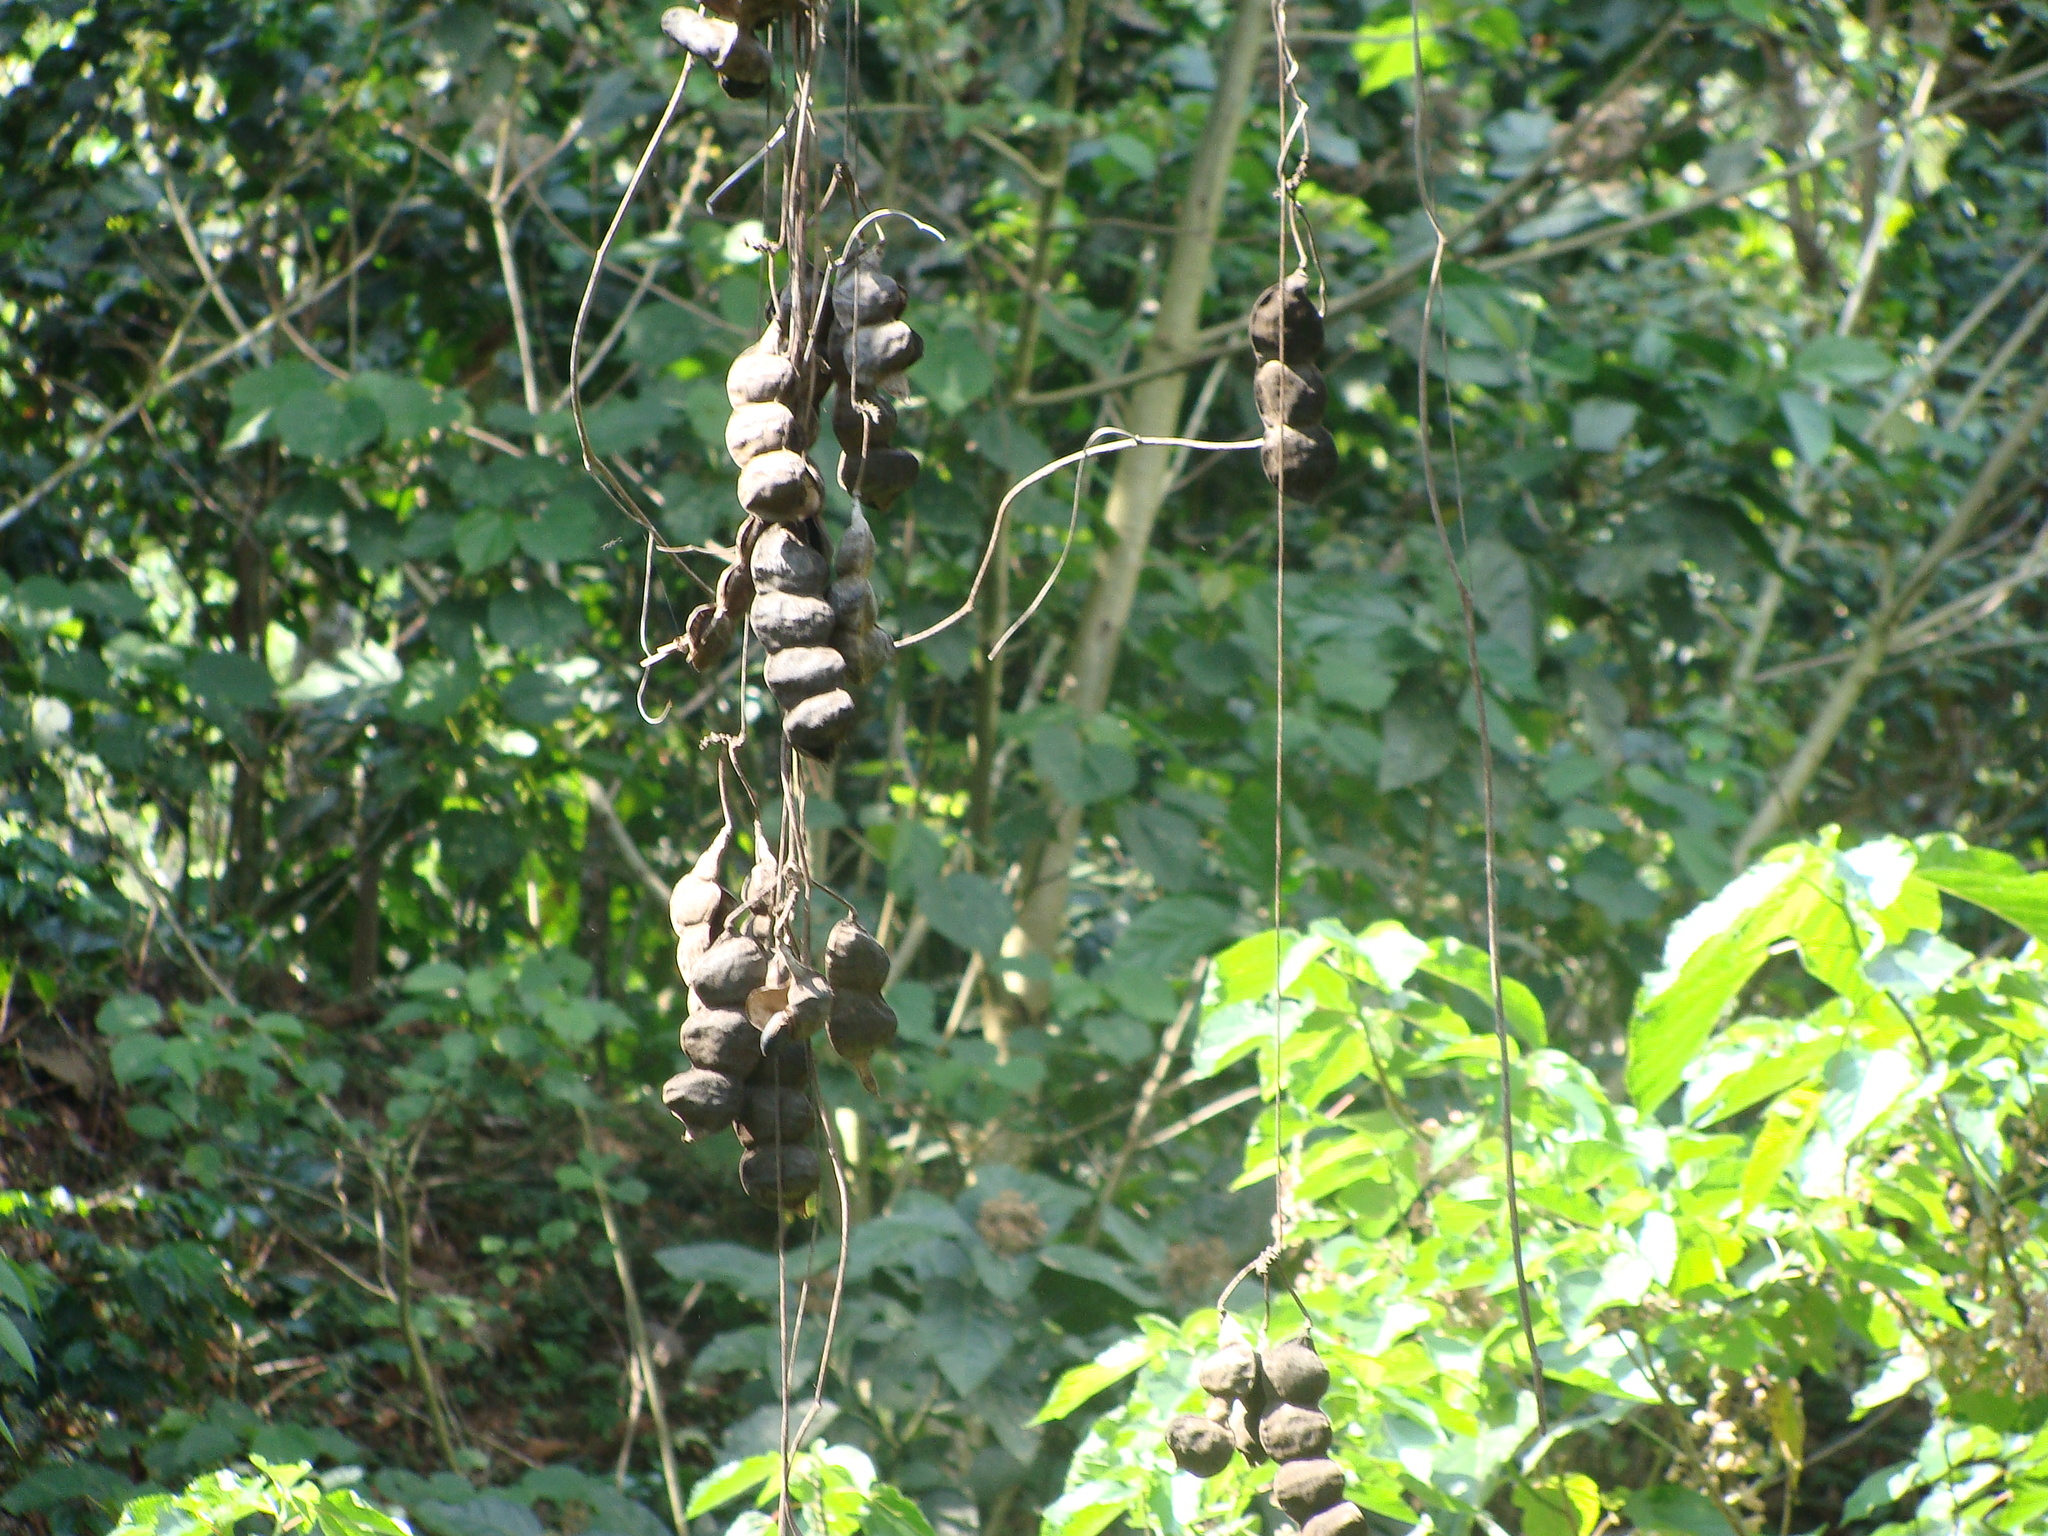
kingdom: Plantae
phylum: Tracheophyta
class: Magnoliopsida
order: Fabales
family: Fabaceae
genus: Mucuna
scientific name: Mucuna argyrophylla
